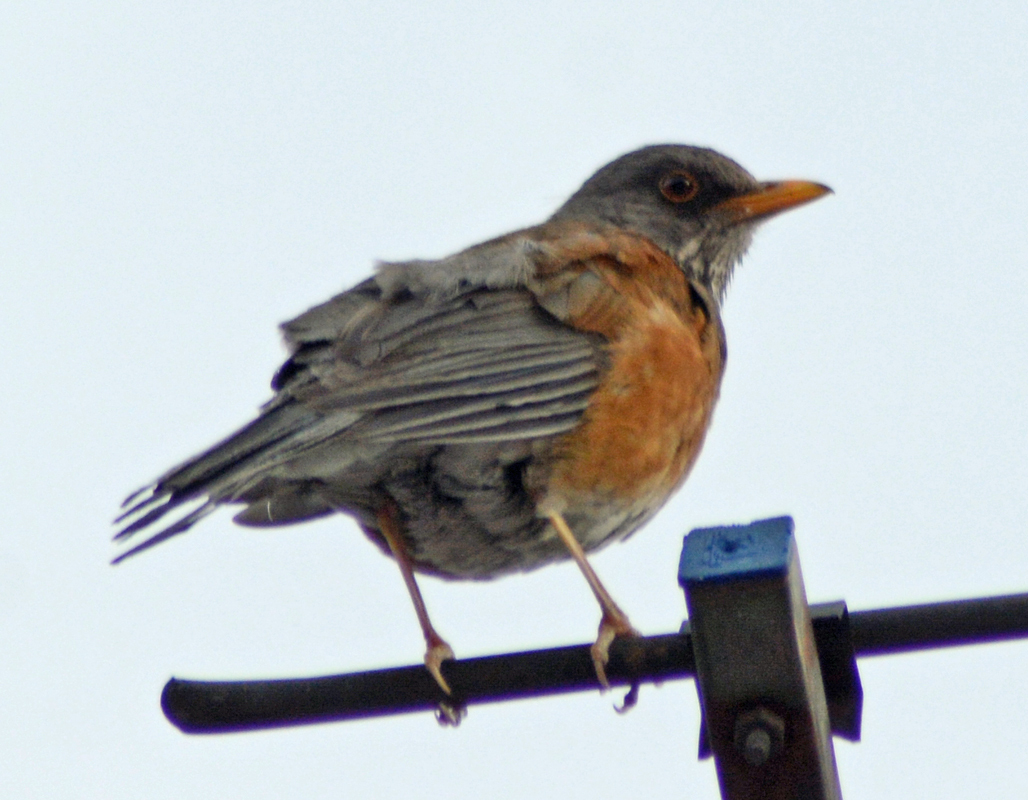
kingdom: Animalia
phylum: Chordata
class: Aves
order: Passeriformes
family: Turdidae
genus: Turdus
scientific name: Turdus rufopalliatus
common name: Rufous-backed robin
